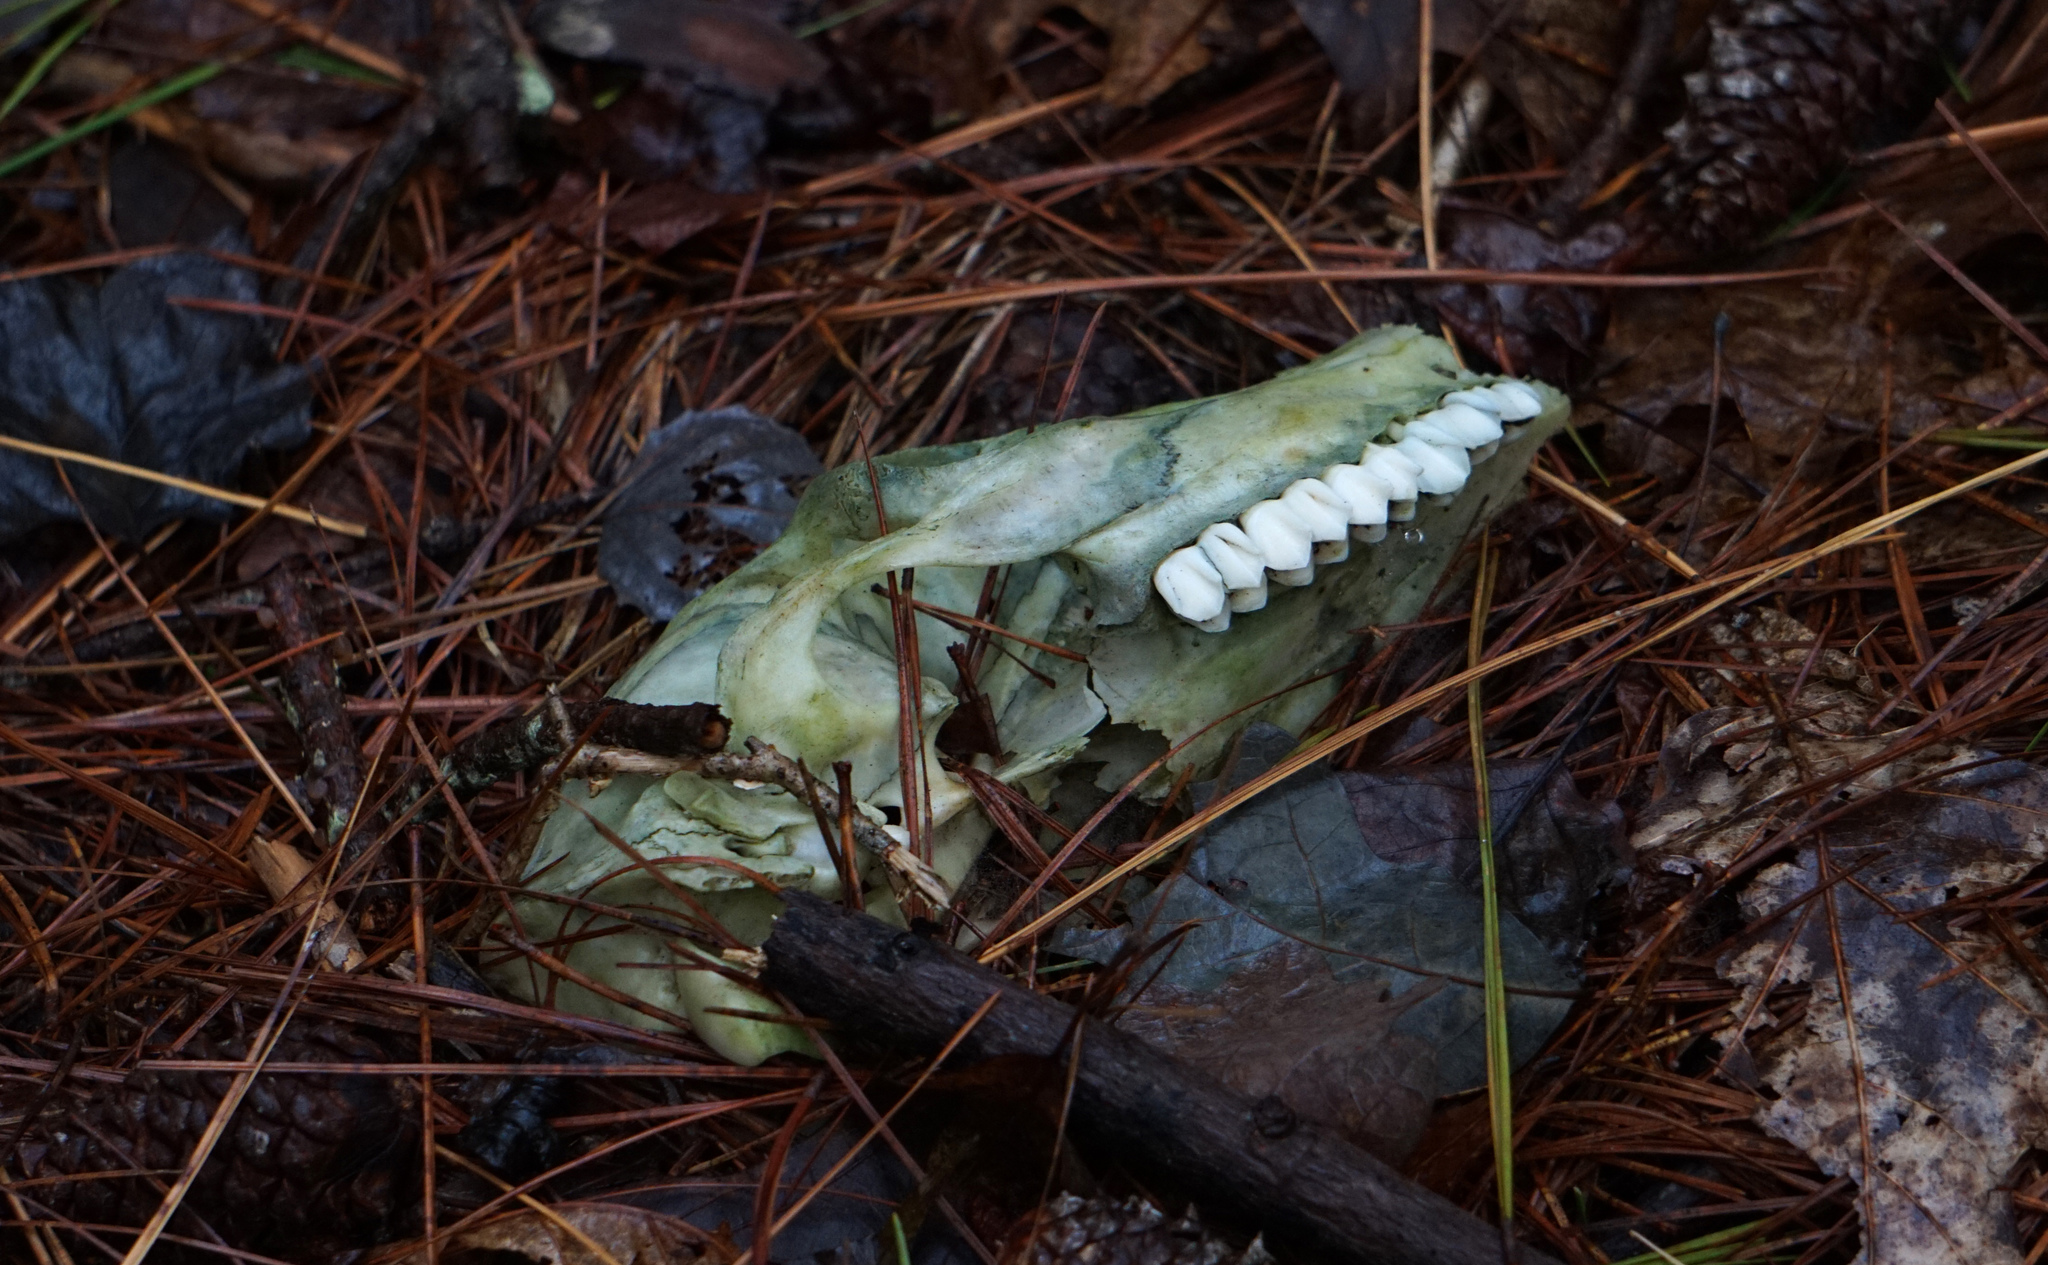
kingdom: Animalia
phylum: Chordata
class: Mammalia
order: Artiodactyla
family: Cervidae
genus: Odocoileus
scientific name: Odocoileus virginianus
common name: White-tailed deer
